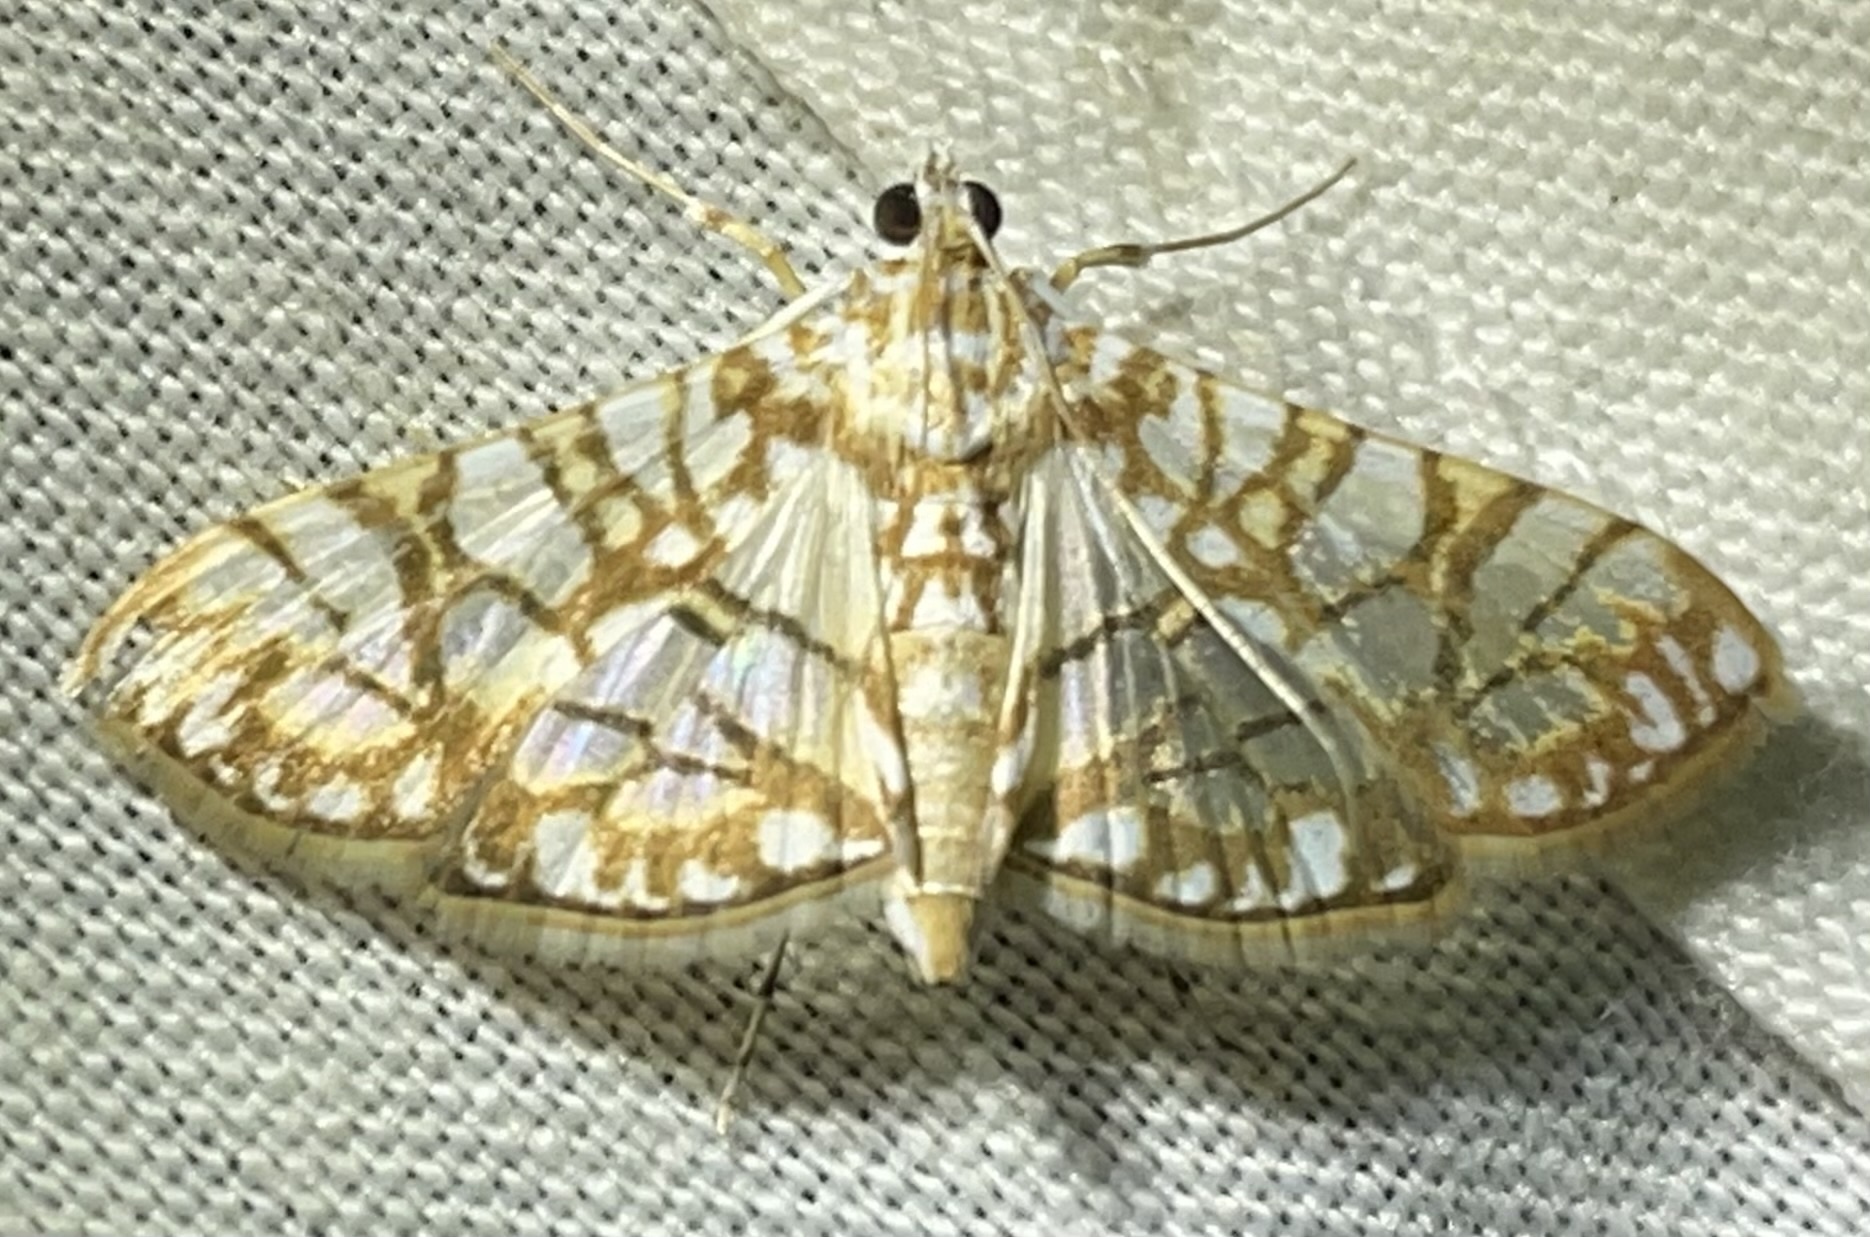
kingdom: Animalia
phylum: Arthropoda
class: Insecta
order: Lepidoptera
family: Crambidae
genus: Synclera
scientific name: Synclera traducalis
